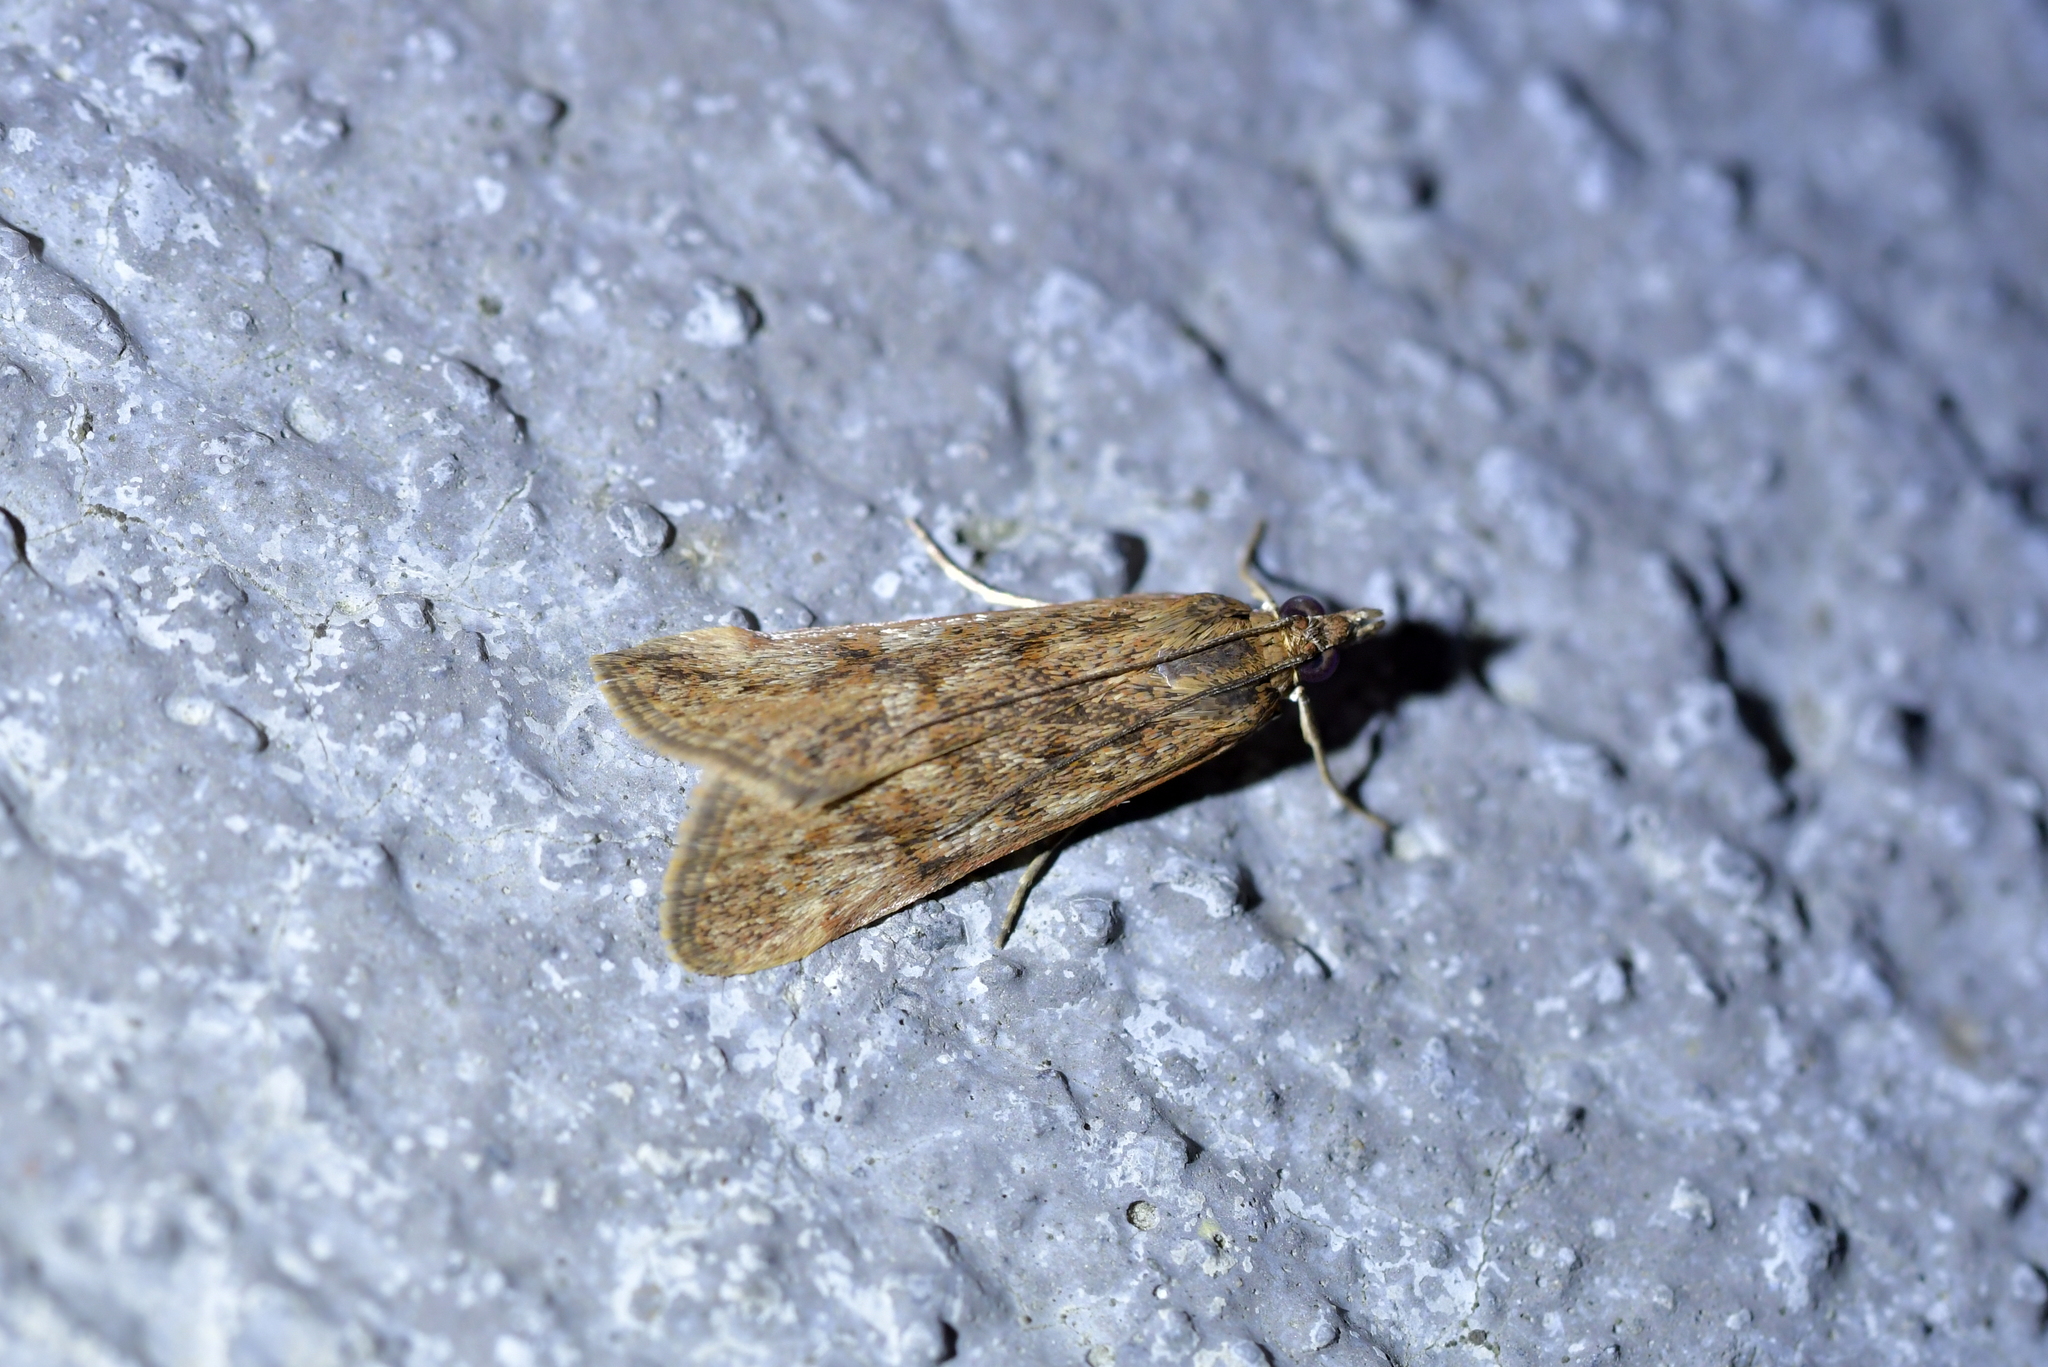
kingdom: Animalia
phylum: Arthropoda
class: Insecta
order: Lepidoptera
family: Crambidae
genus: Achyra
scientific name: Achyra affinitalis
